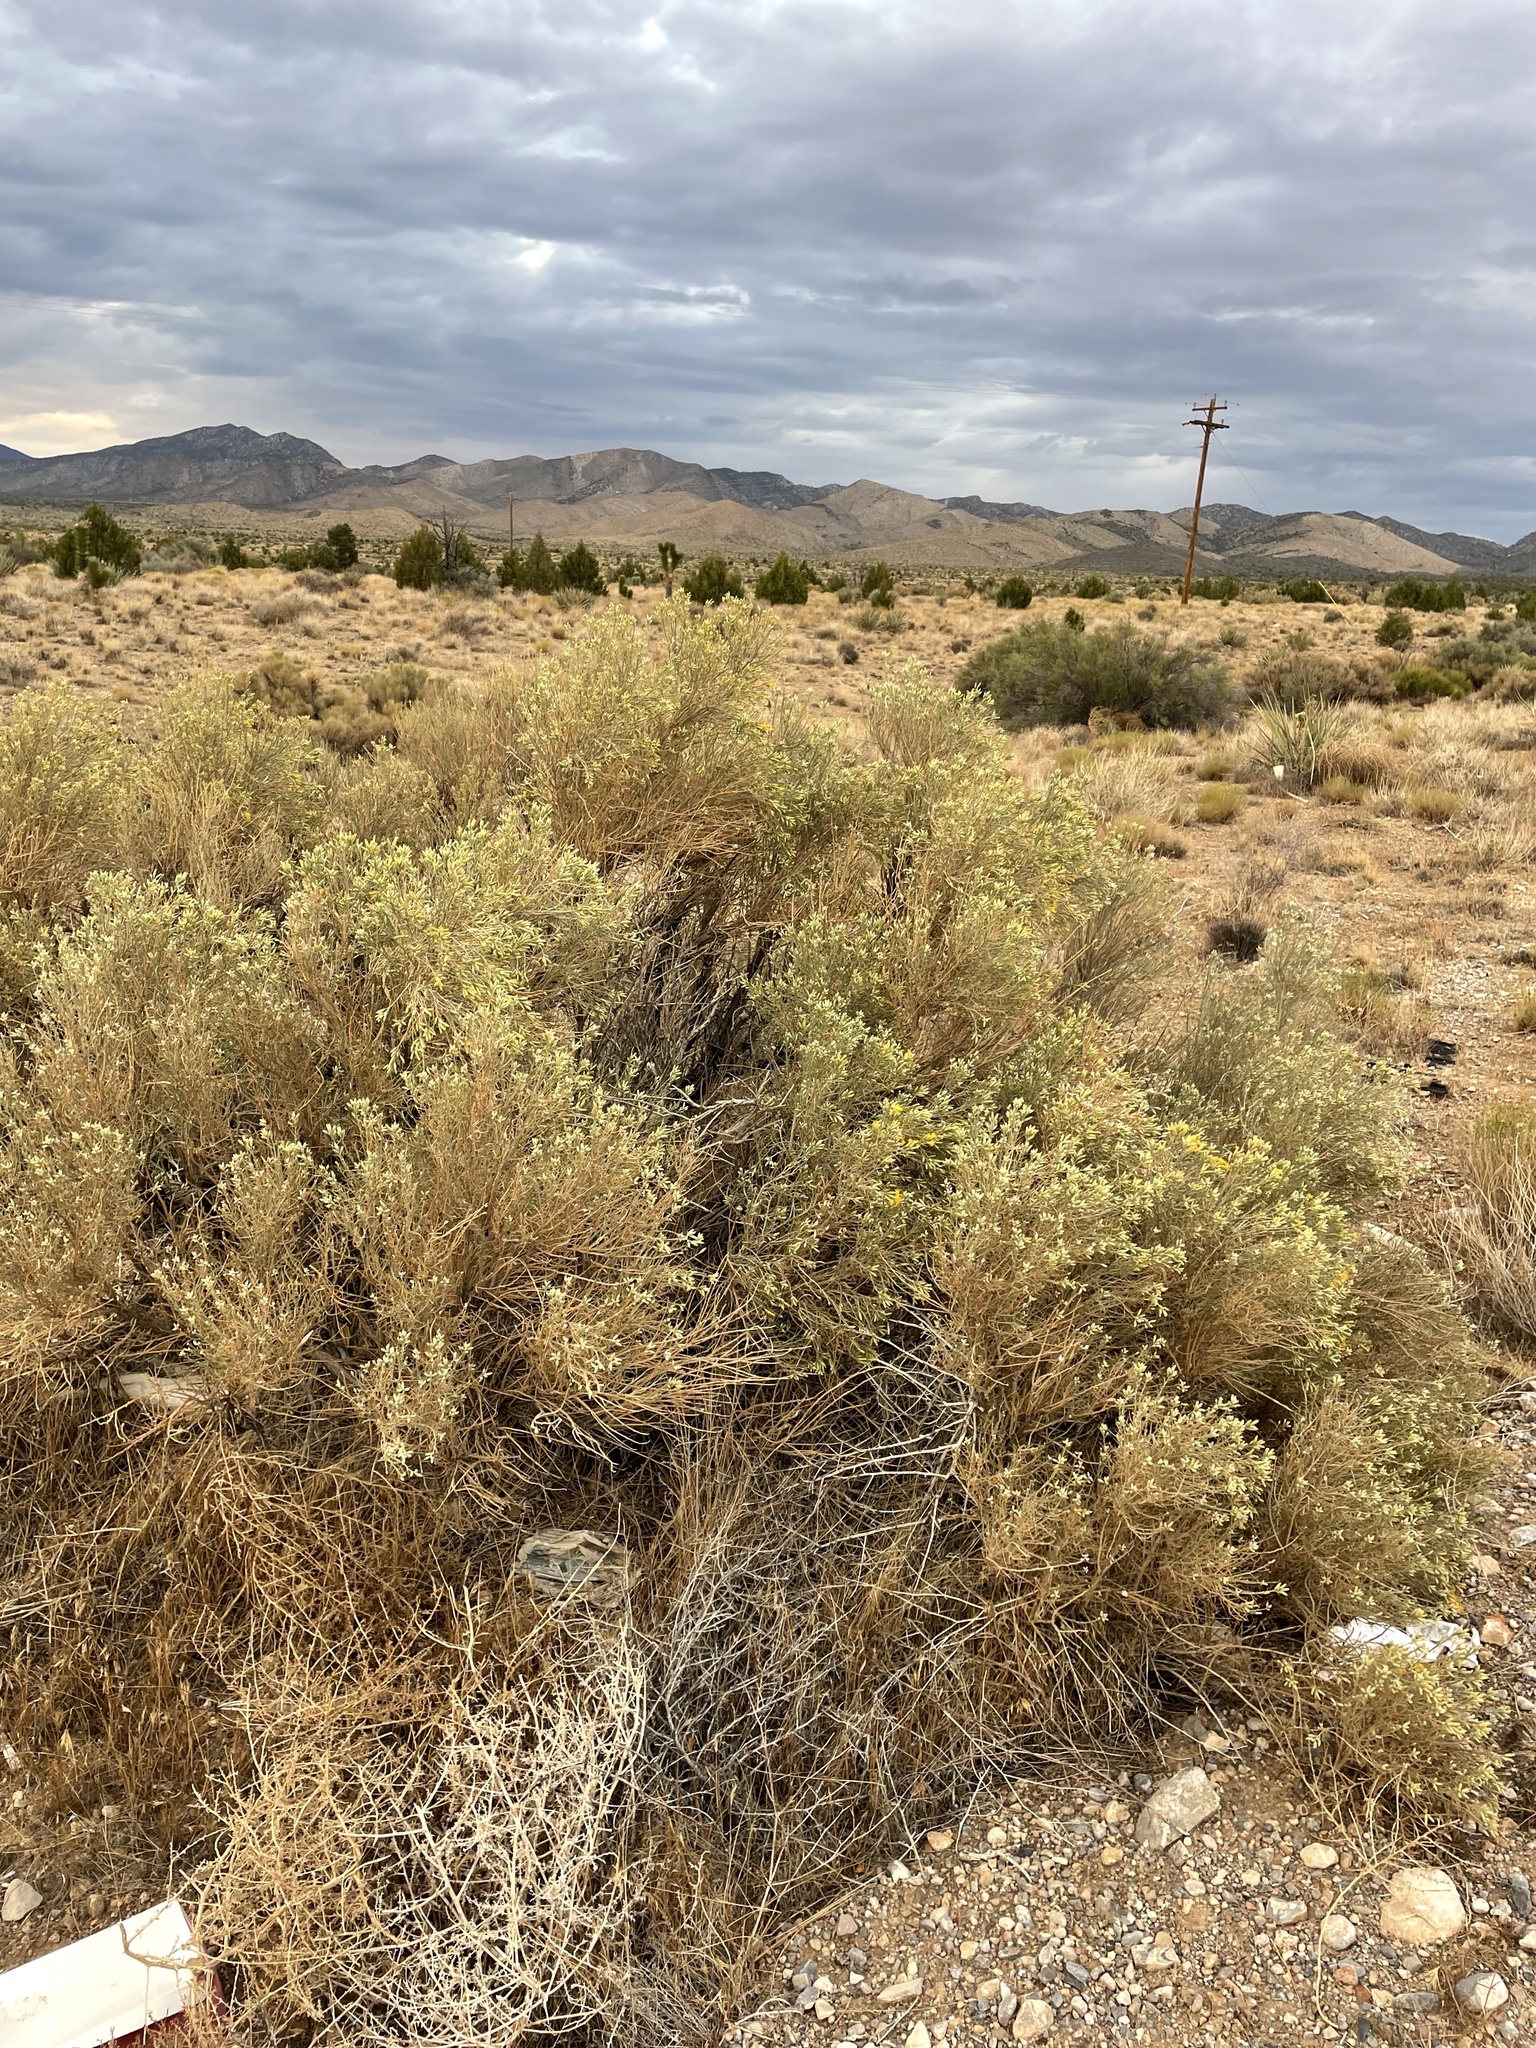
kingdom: Plantae
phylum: Tracheophyta
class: Magnoliopsida
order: Asterales
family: Asteraceae
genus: Lepidospartum
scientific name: Lepidospartum latisquamum
